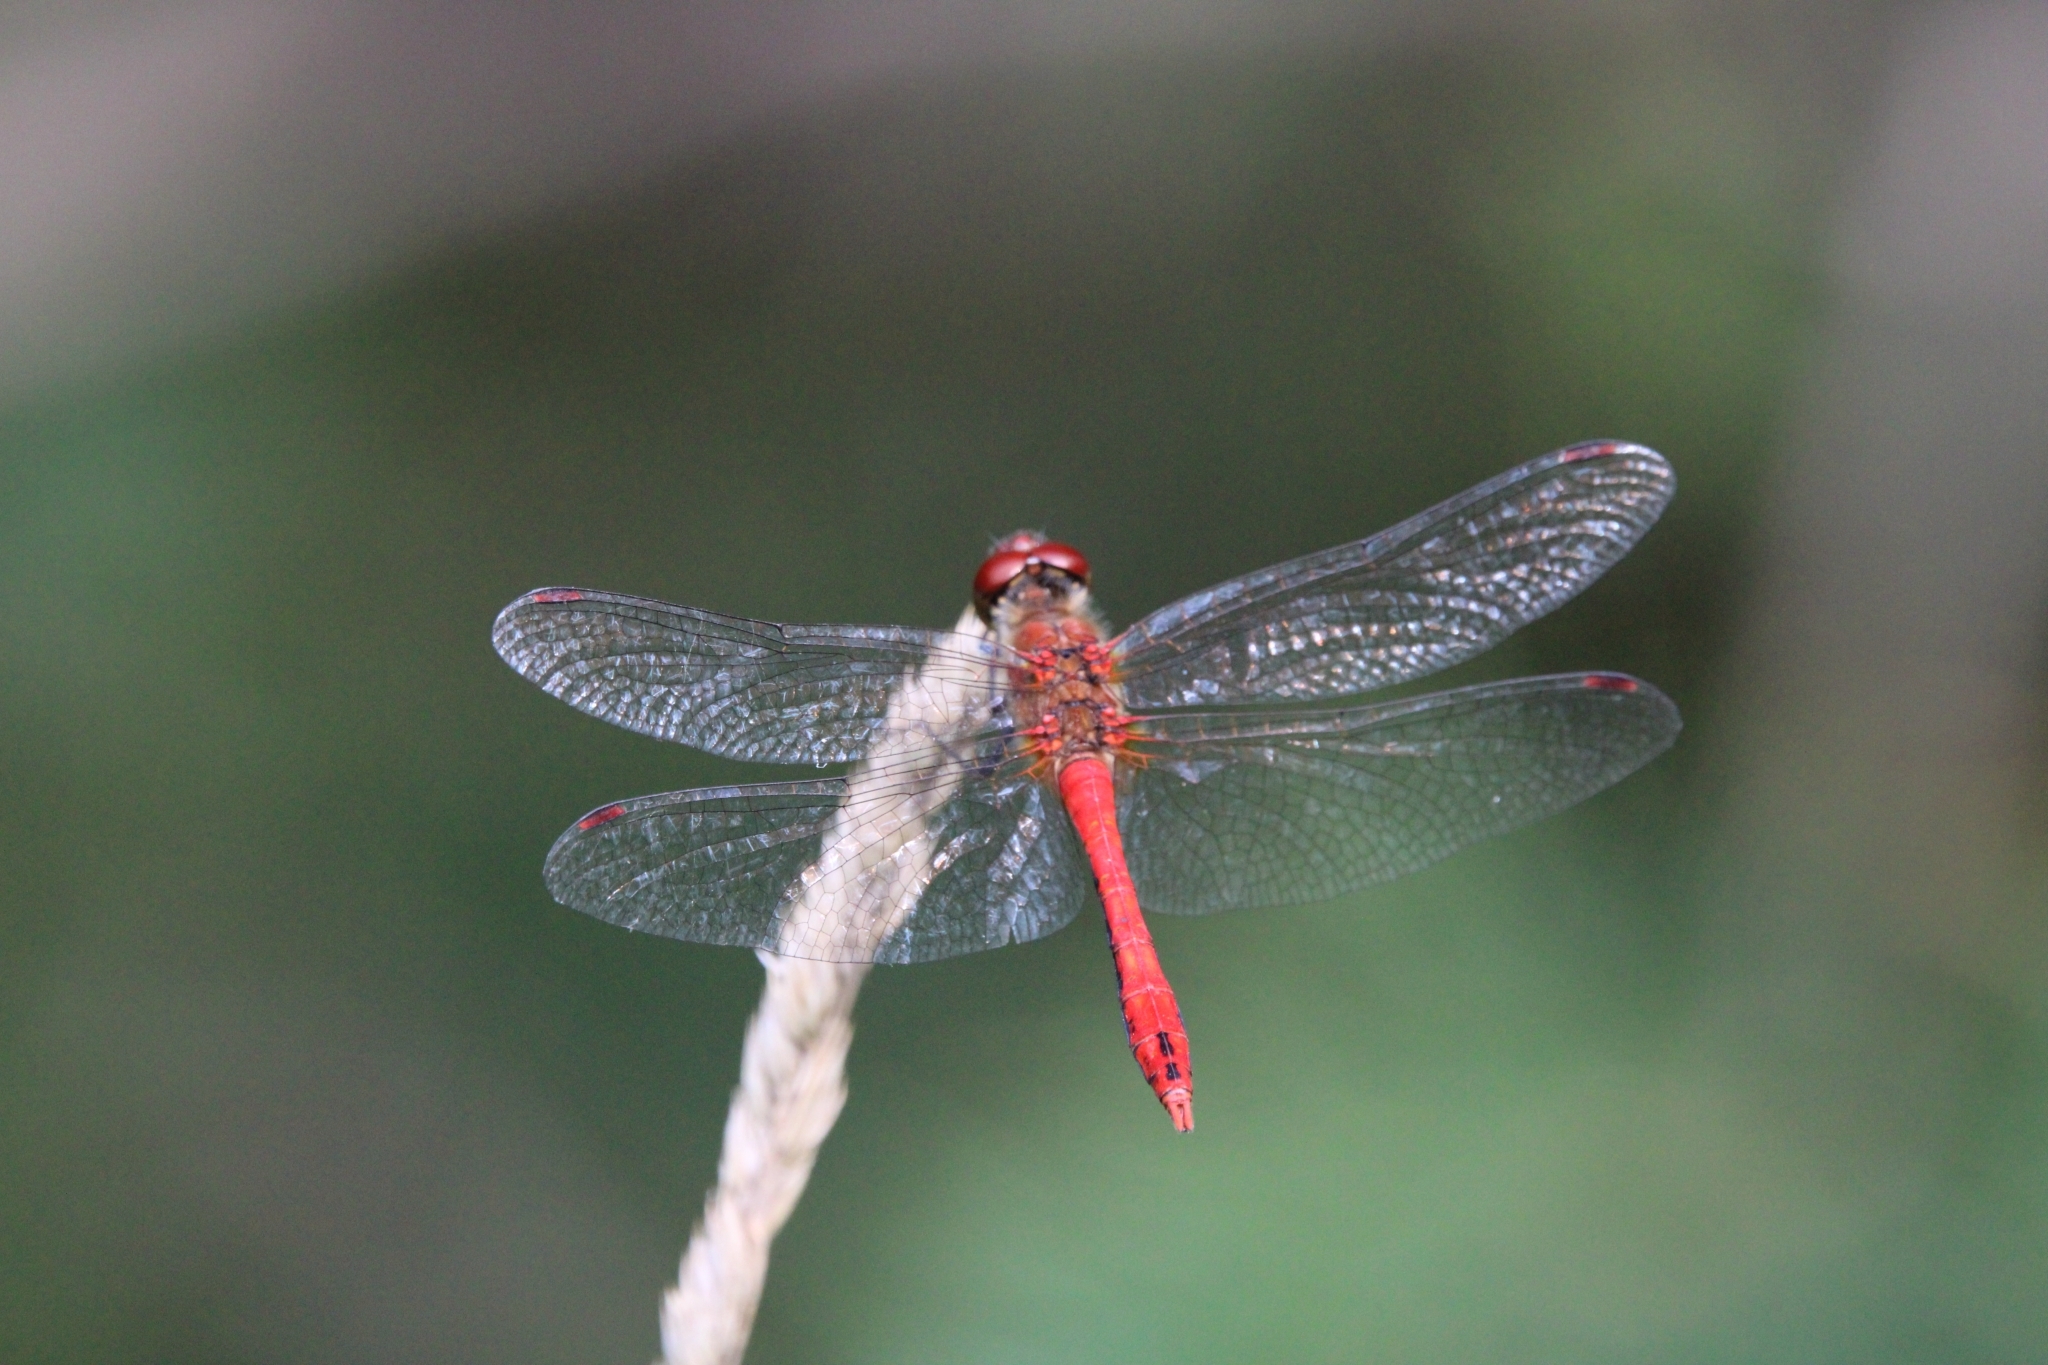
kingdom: Animalia
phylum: Arthropoda
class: Insecta
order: Odonata
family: Libellulidae
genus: Sympetrum
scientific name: Sympetrum sanguineum
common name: Ruddy darter
